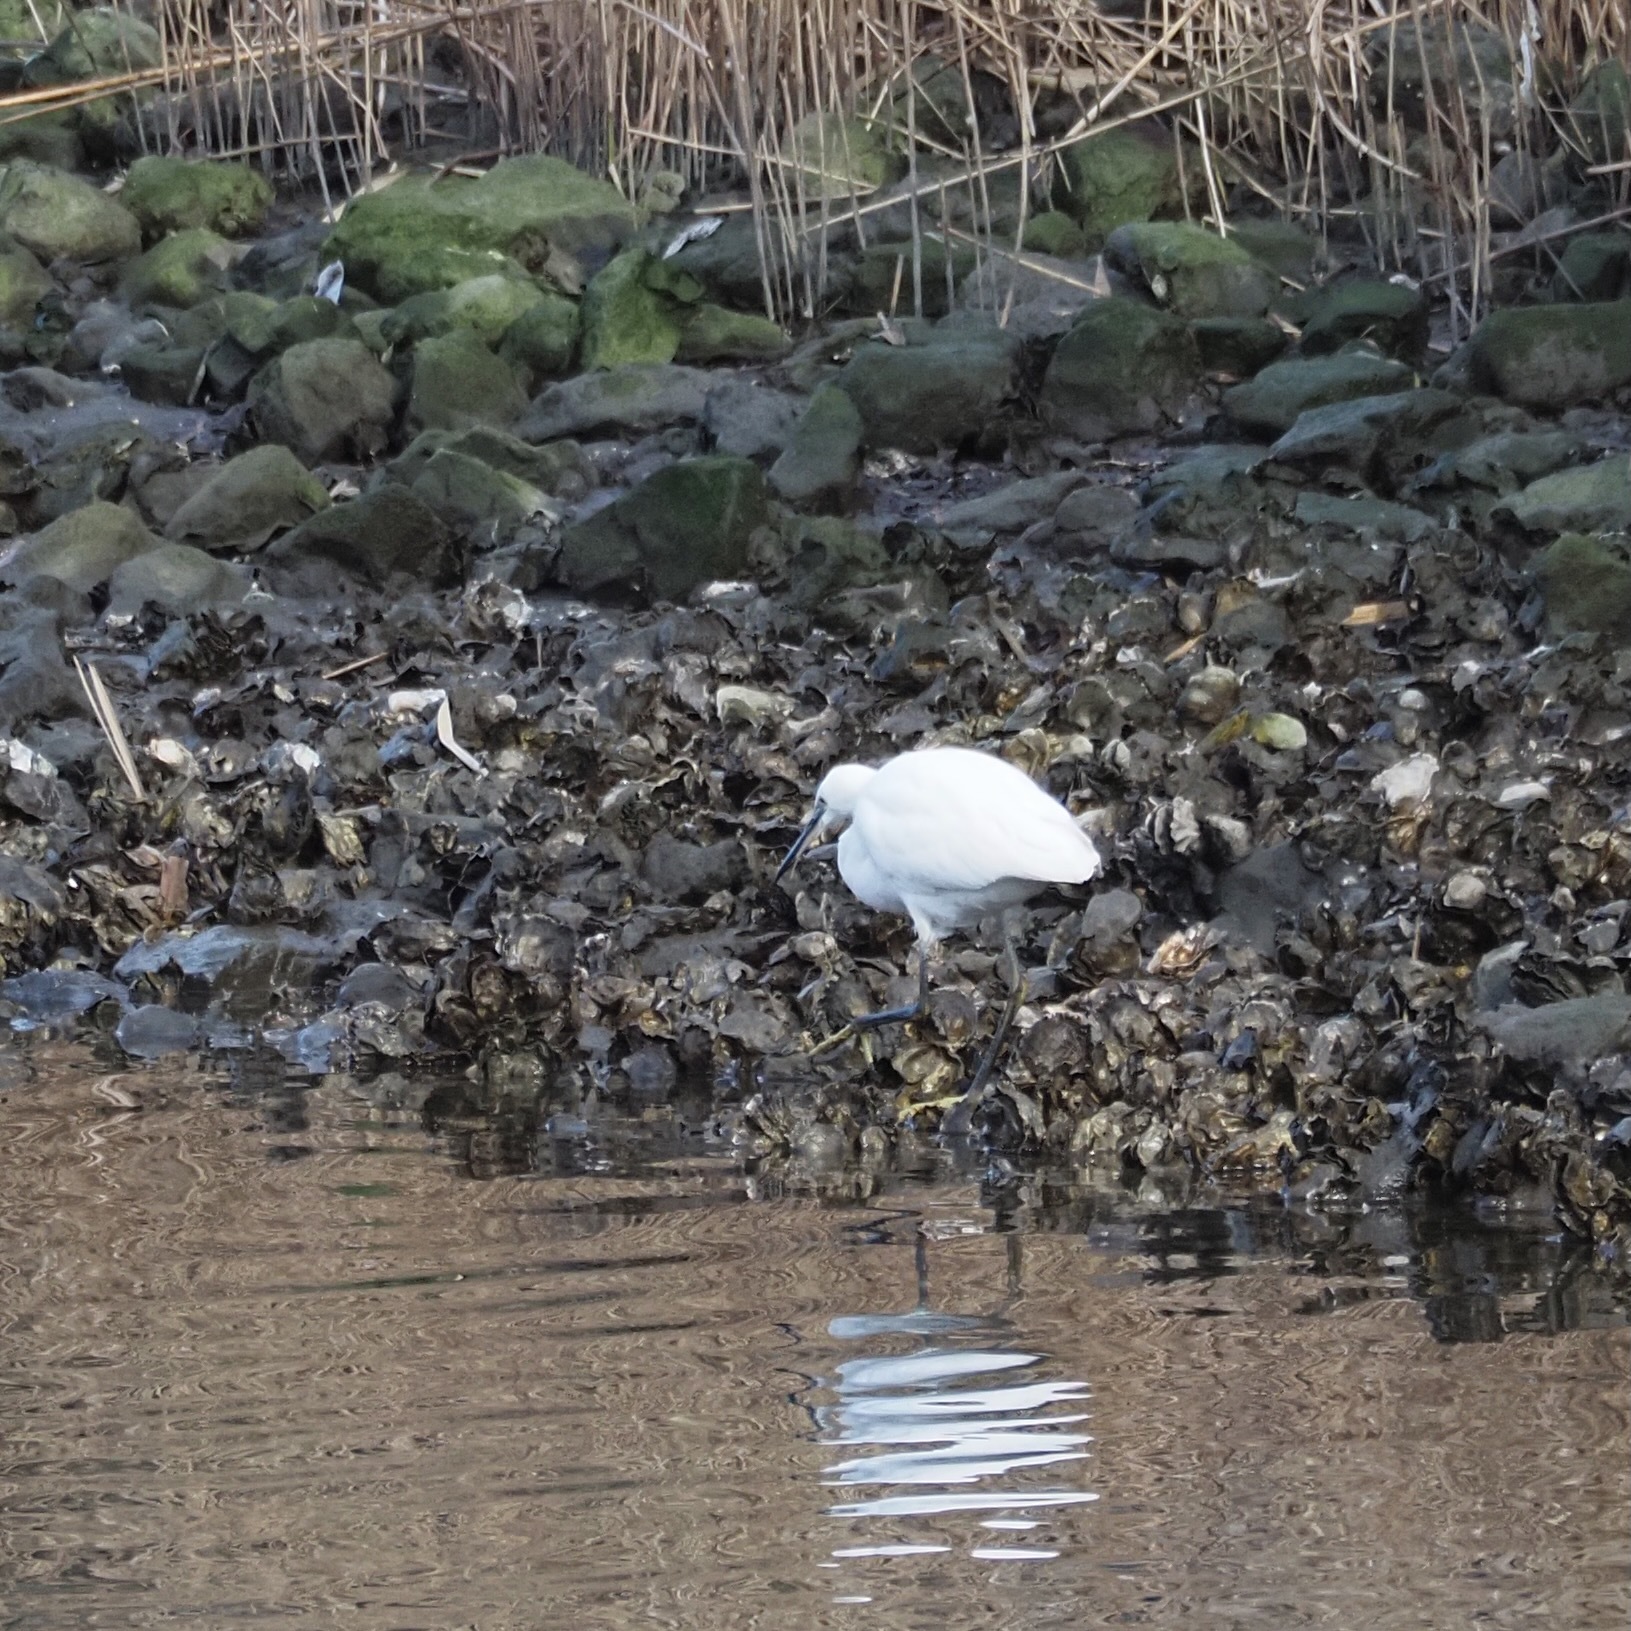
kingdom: Animalia
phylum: Chordata
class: Aves
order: Pelecaniformes
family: Ardeidae
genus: Egretta
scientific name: Egretta garzetta
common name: Little egret
